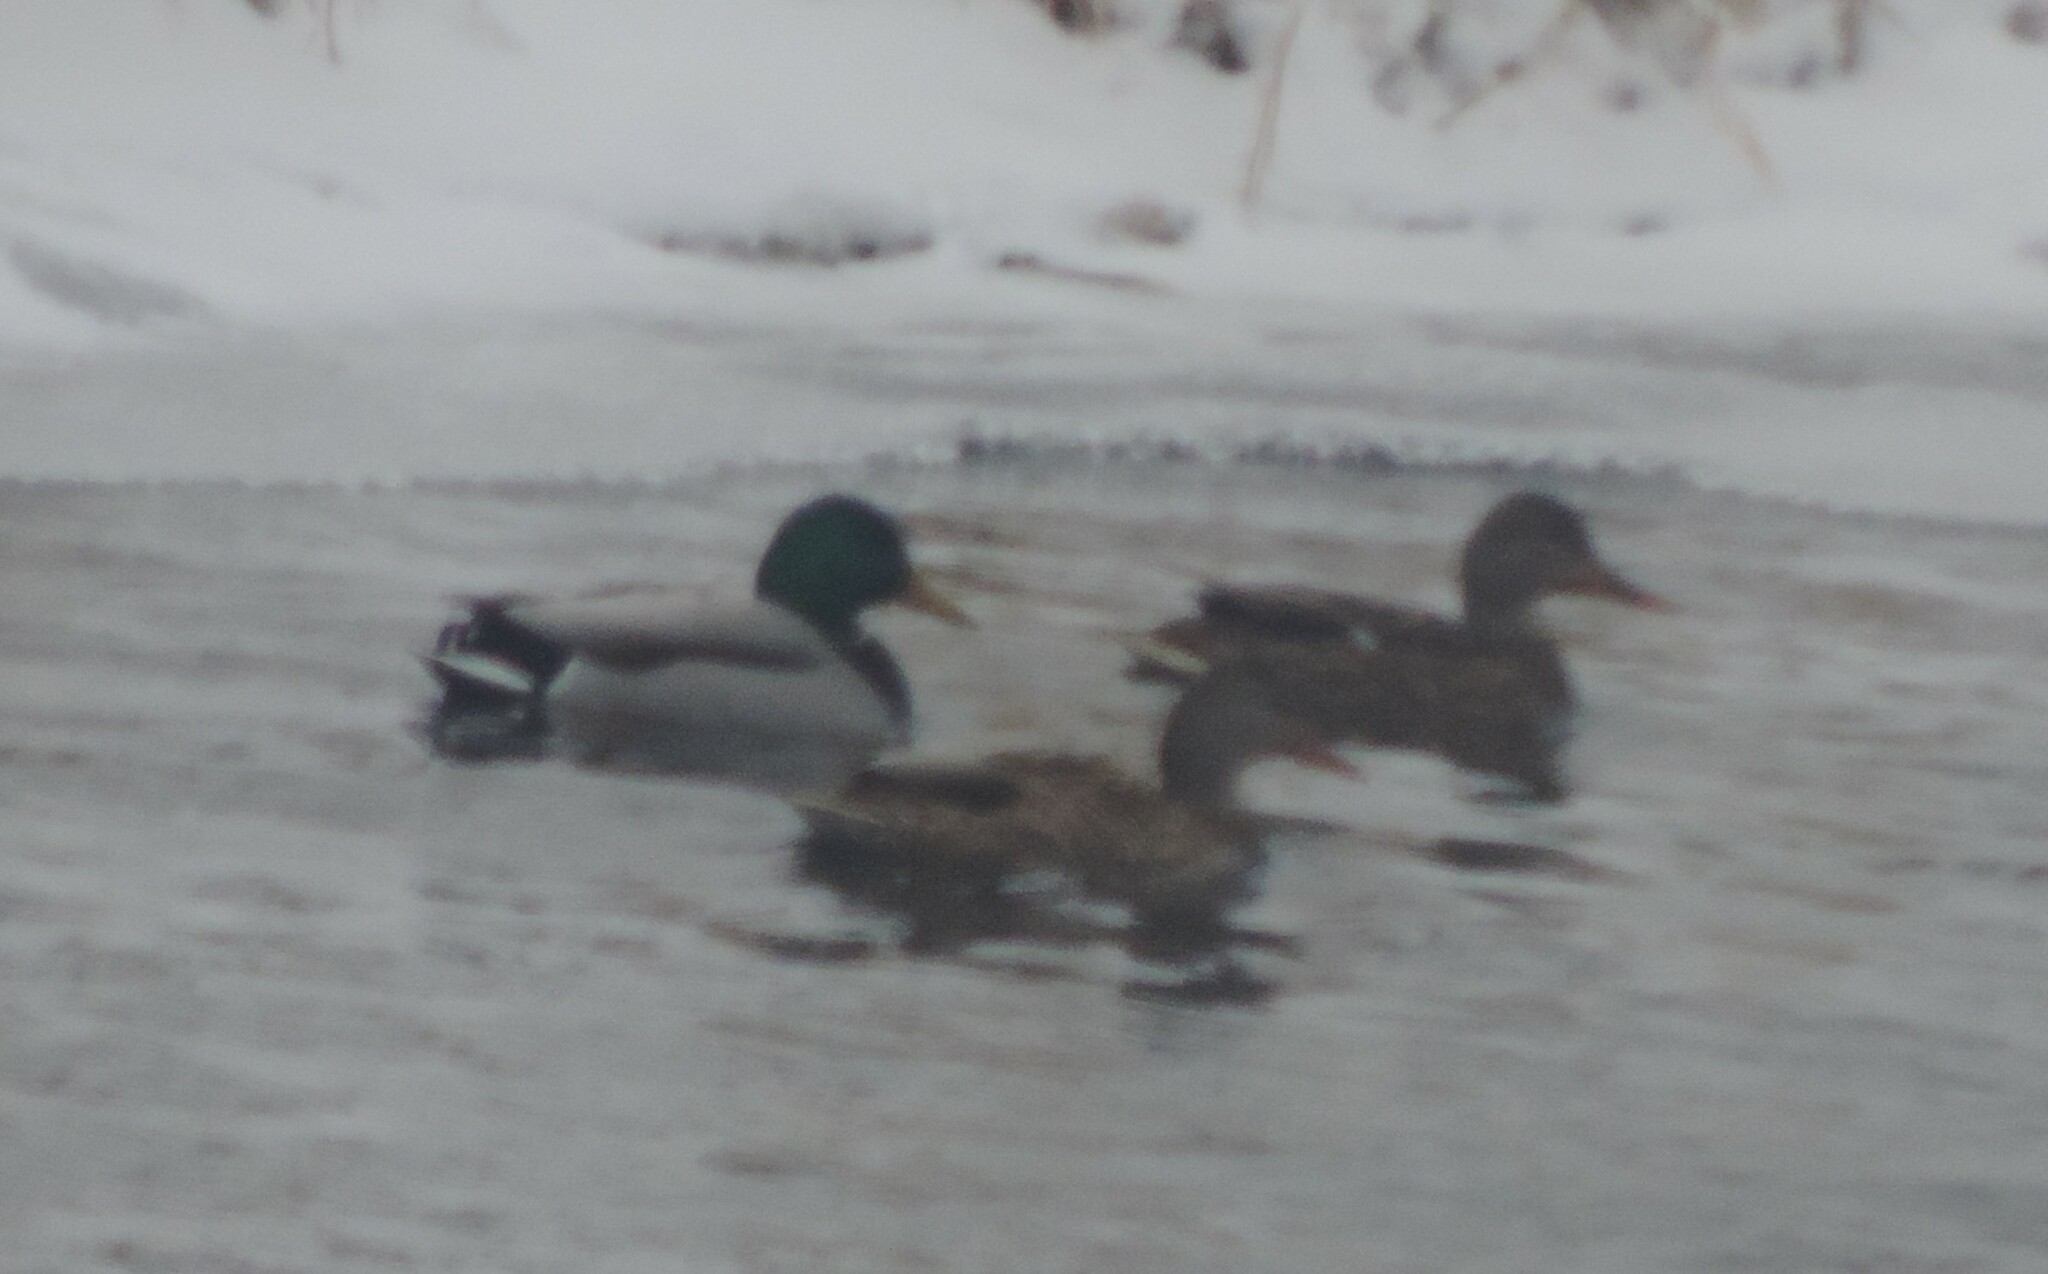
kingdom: Animalia
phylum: Chordata
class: Aves
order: Anseriformes
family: Anatidae
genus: Anas
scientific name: Anas platyrhynchos
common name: Mallard
